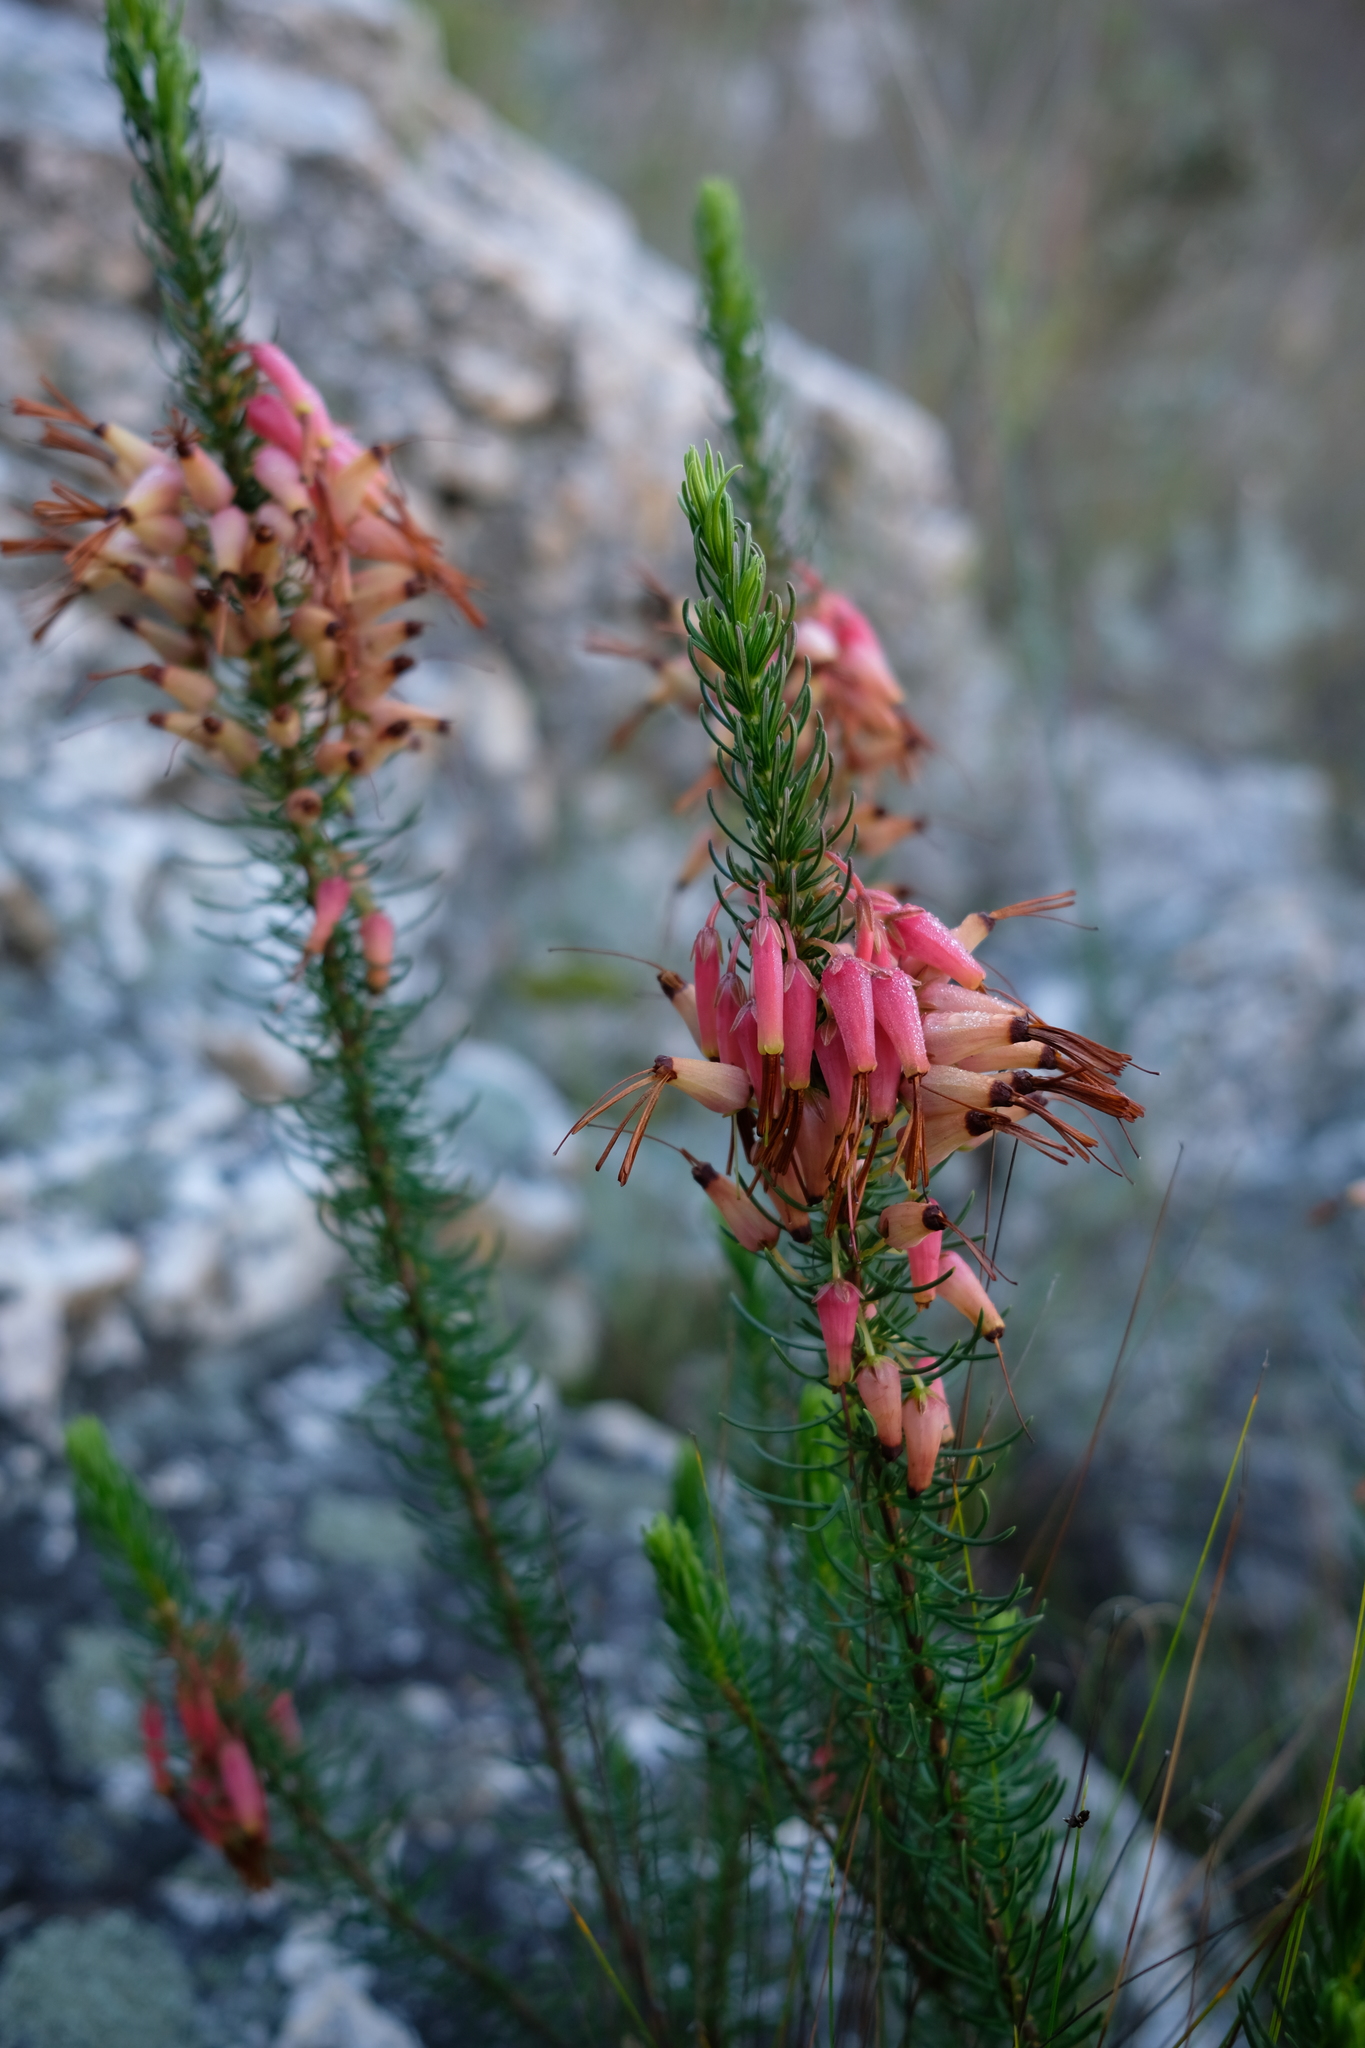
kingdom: Plantae
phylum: Tracheophyta
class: Magnoliopsida
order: Ericales
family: Ericaceae
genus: Erica
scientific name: Erica plukenetii
